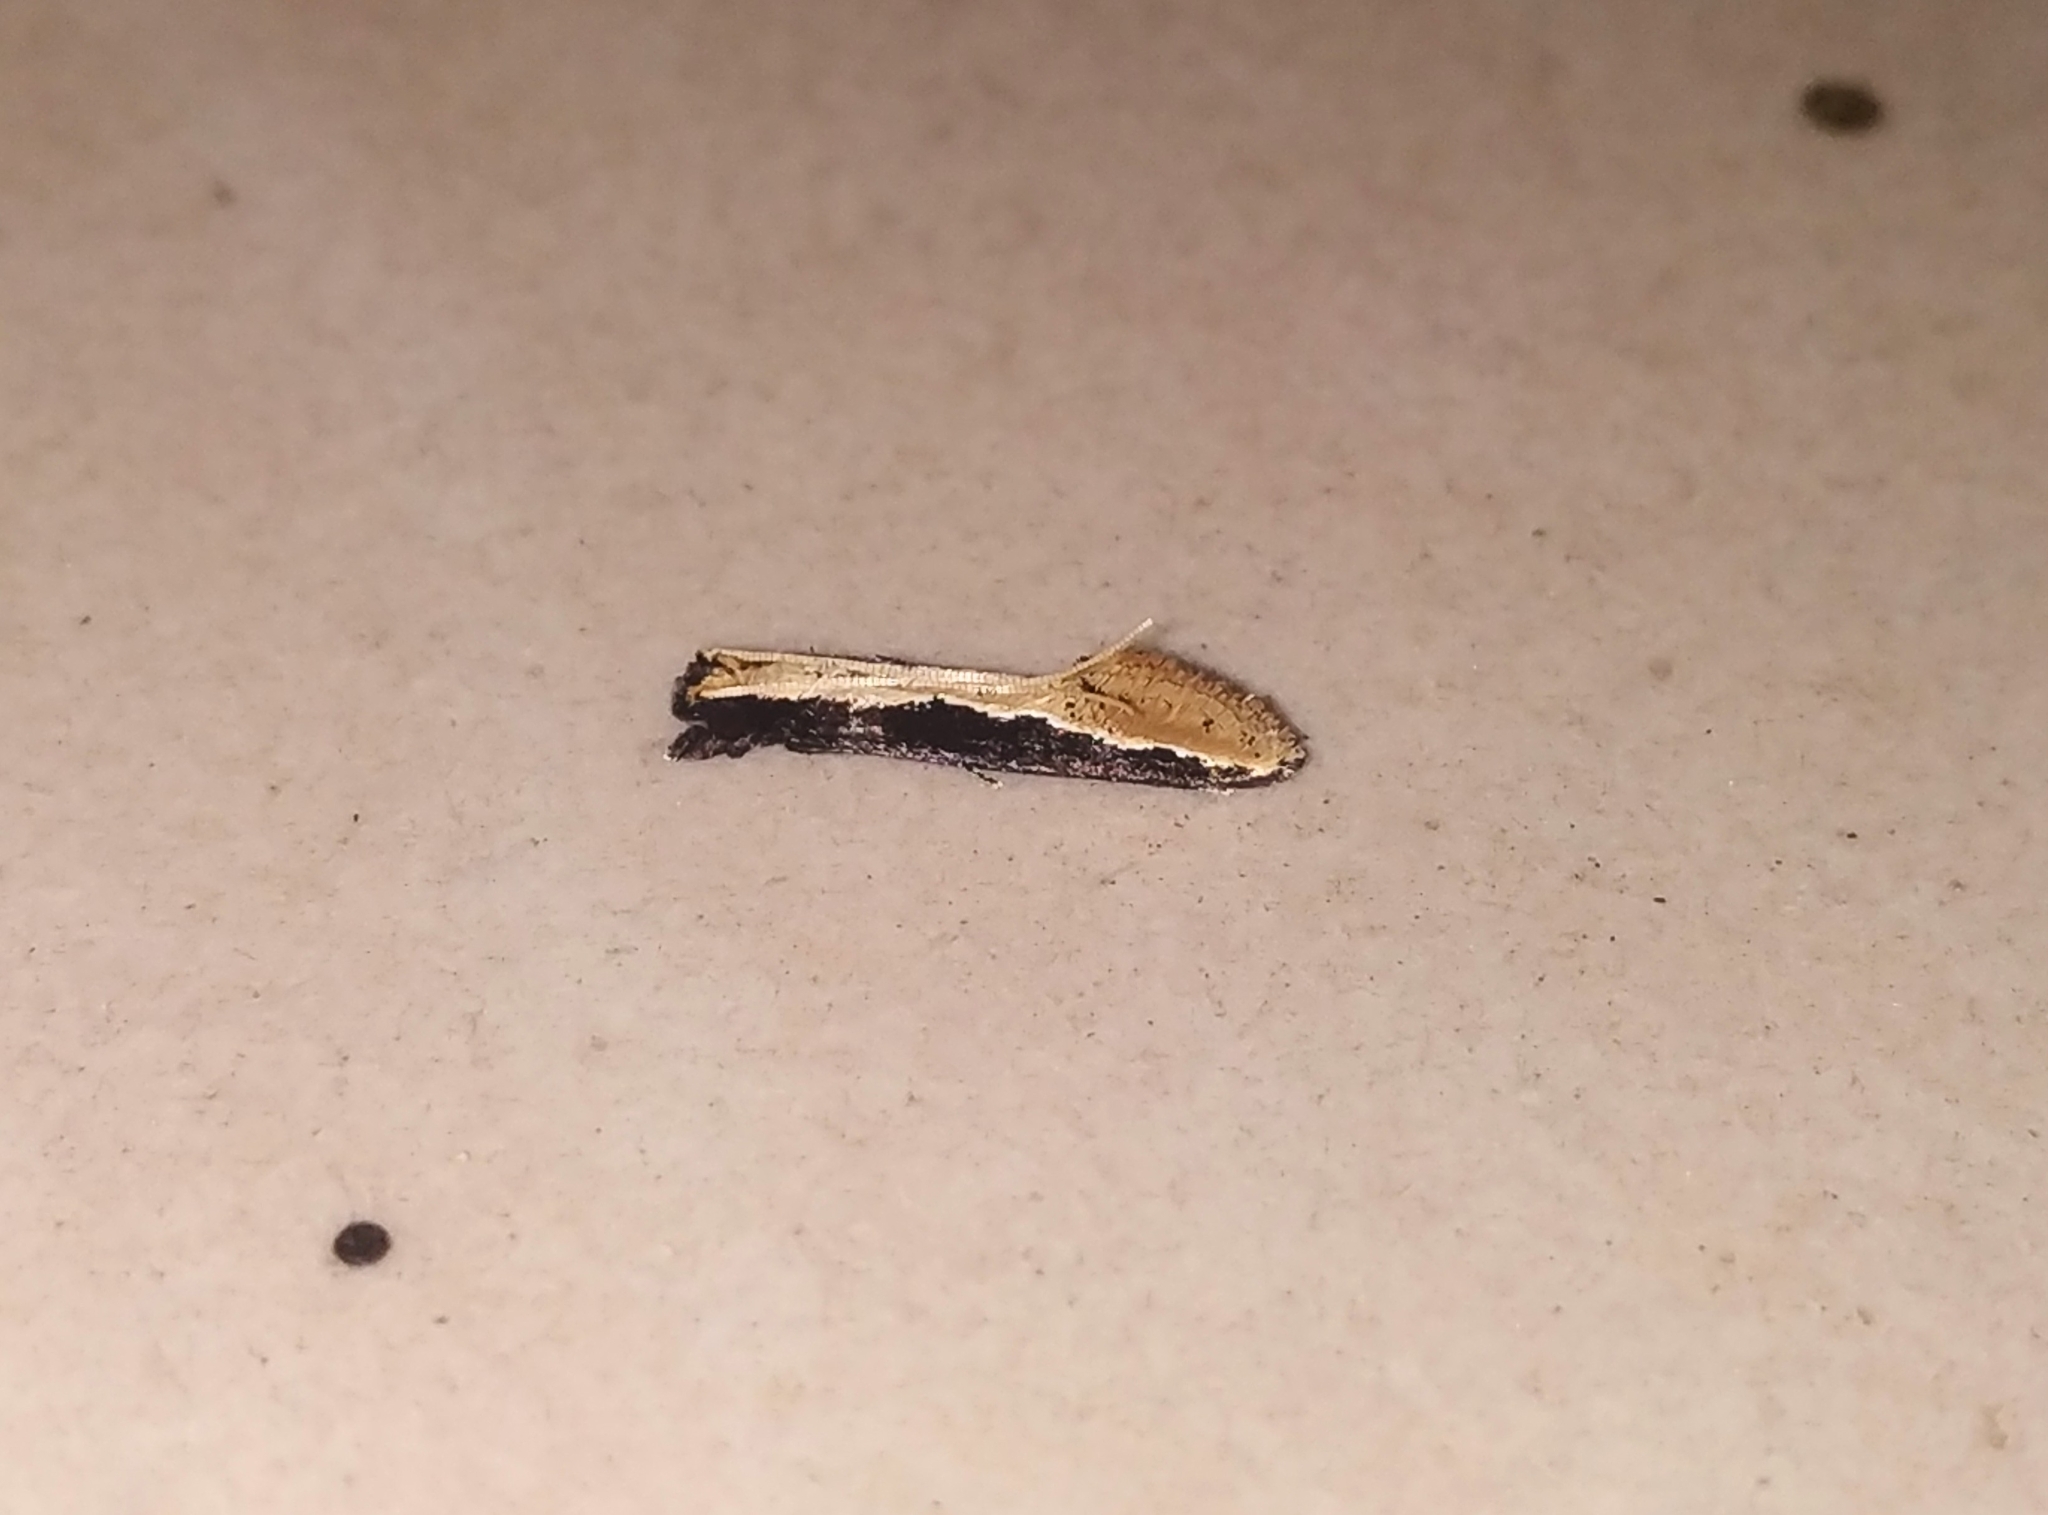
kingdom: Animalia
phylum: Arthropoda
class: Insecta
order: Lepidoptera
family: Tineidae
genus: Pyloetis
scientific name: Pyloetis mimosae
